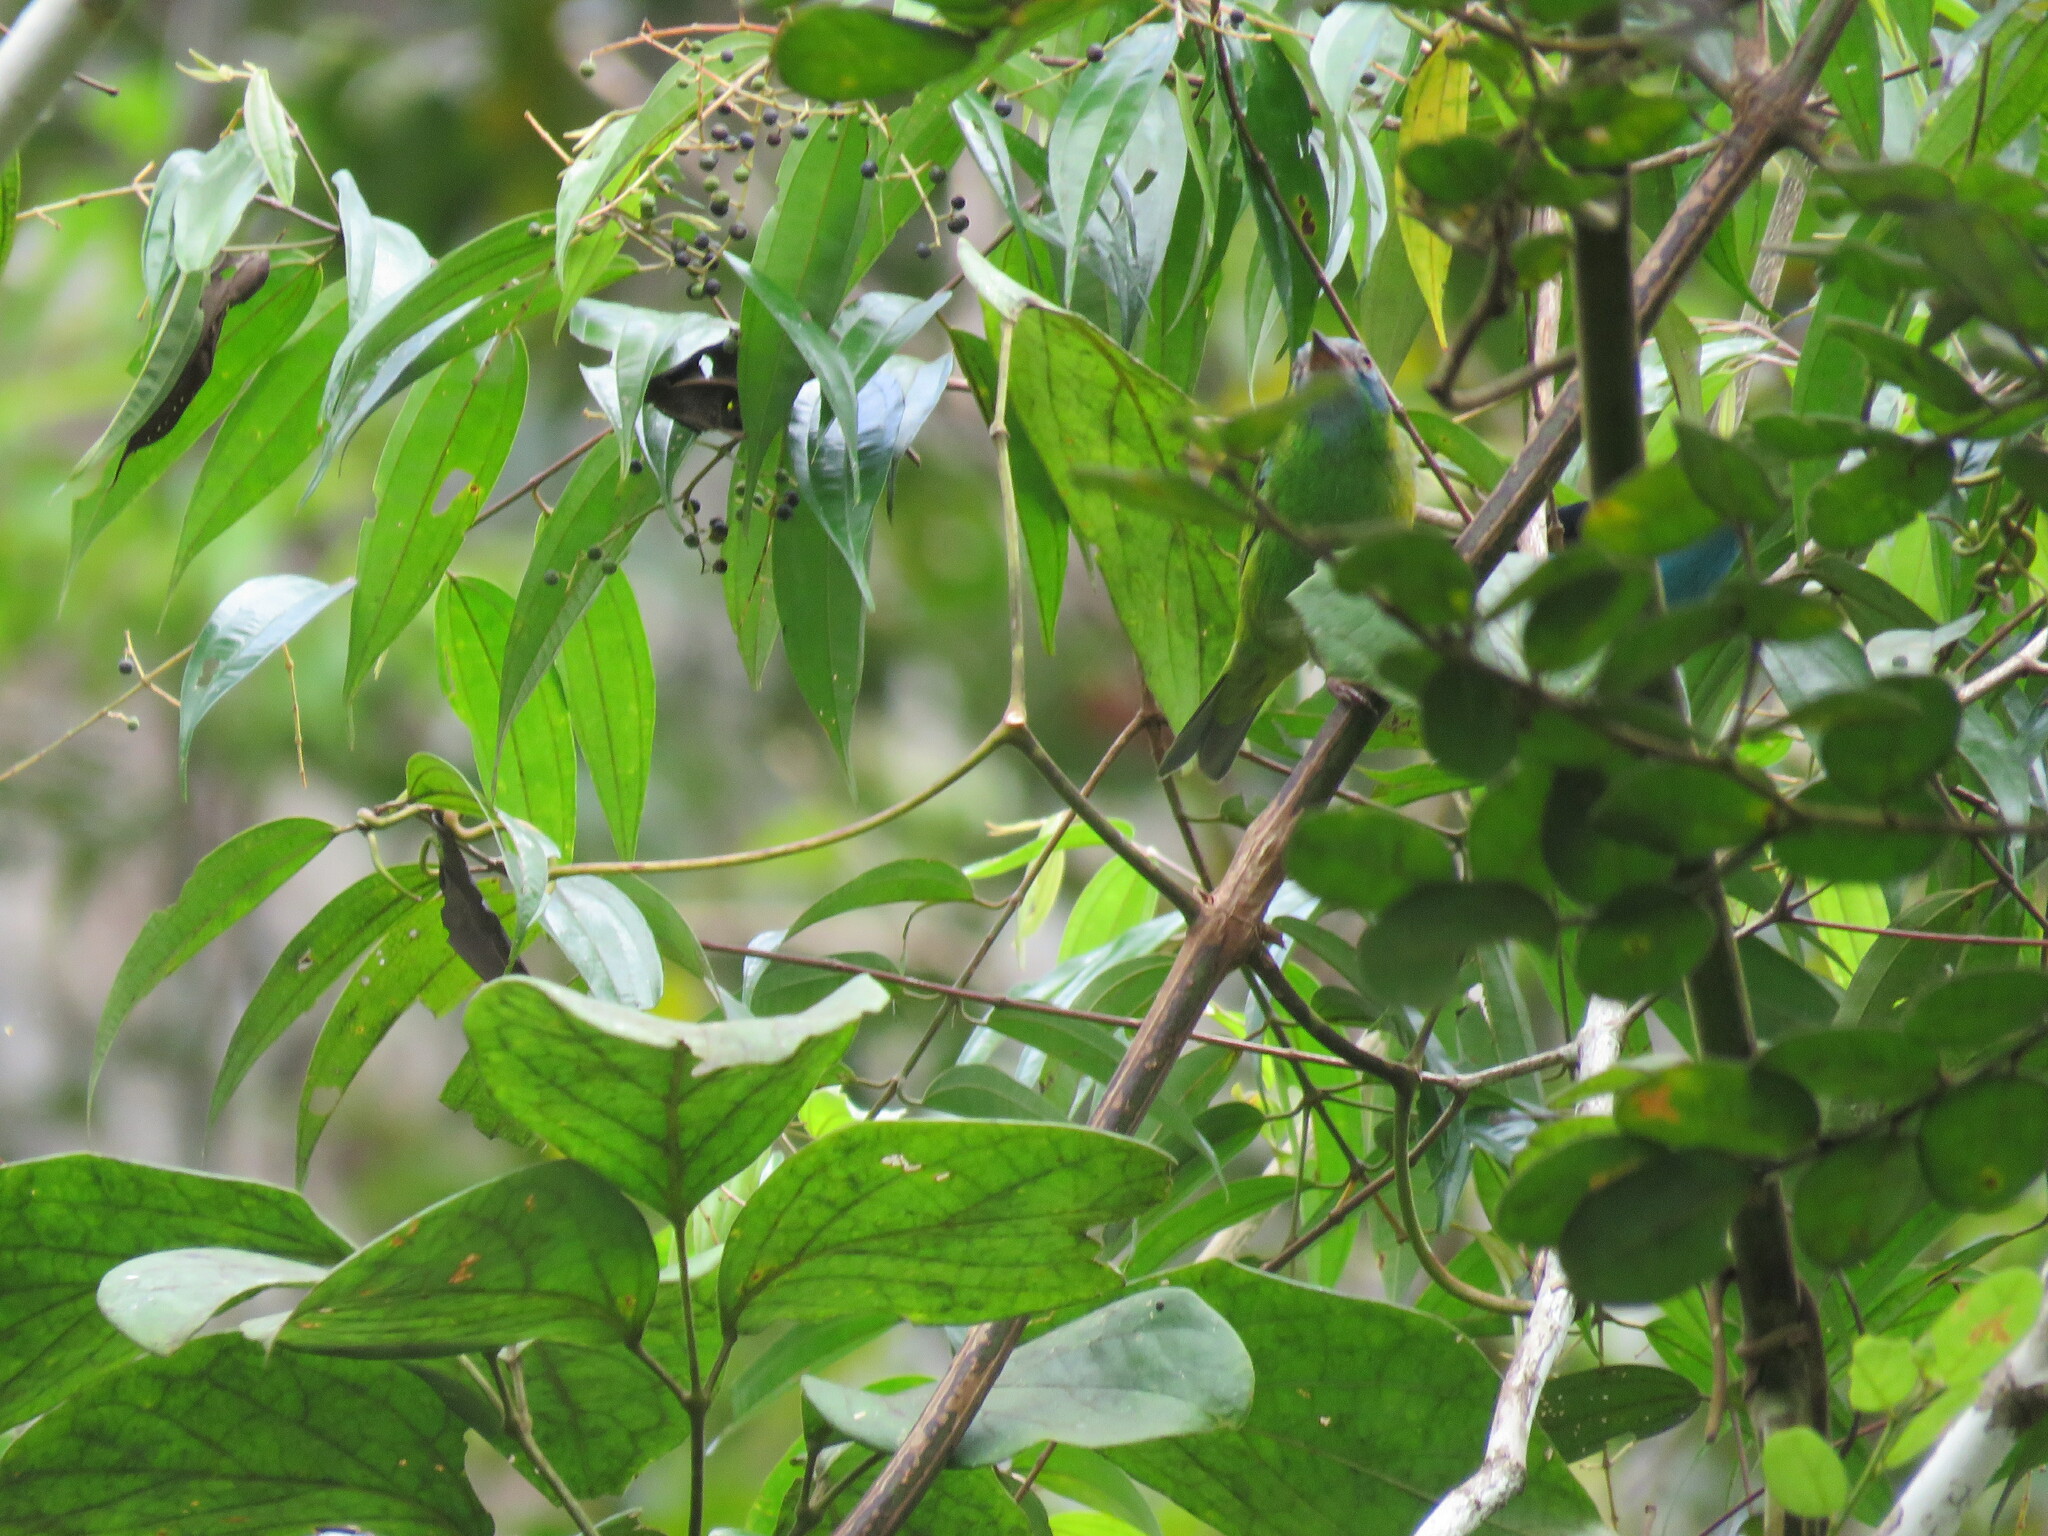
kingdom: Animalia
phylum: Chordata
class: Aves
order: Passeriformes
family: Thraupidae
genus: Dacnis
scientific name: Dacnis cayana
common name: Blue dacnis
